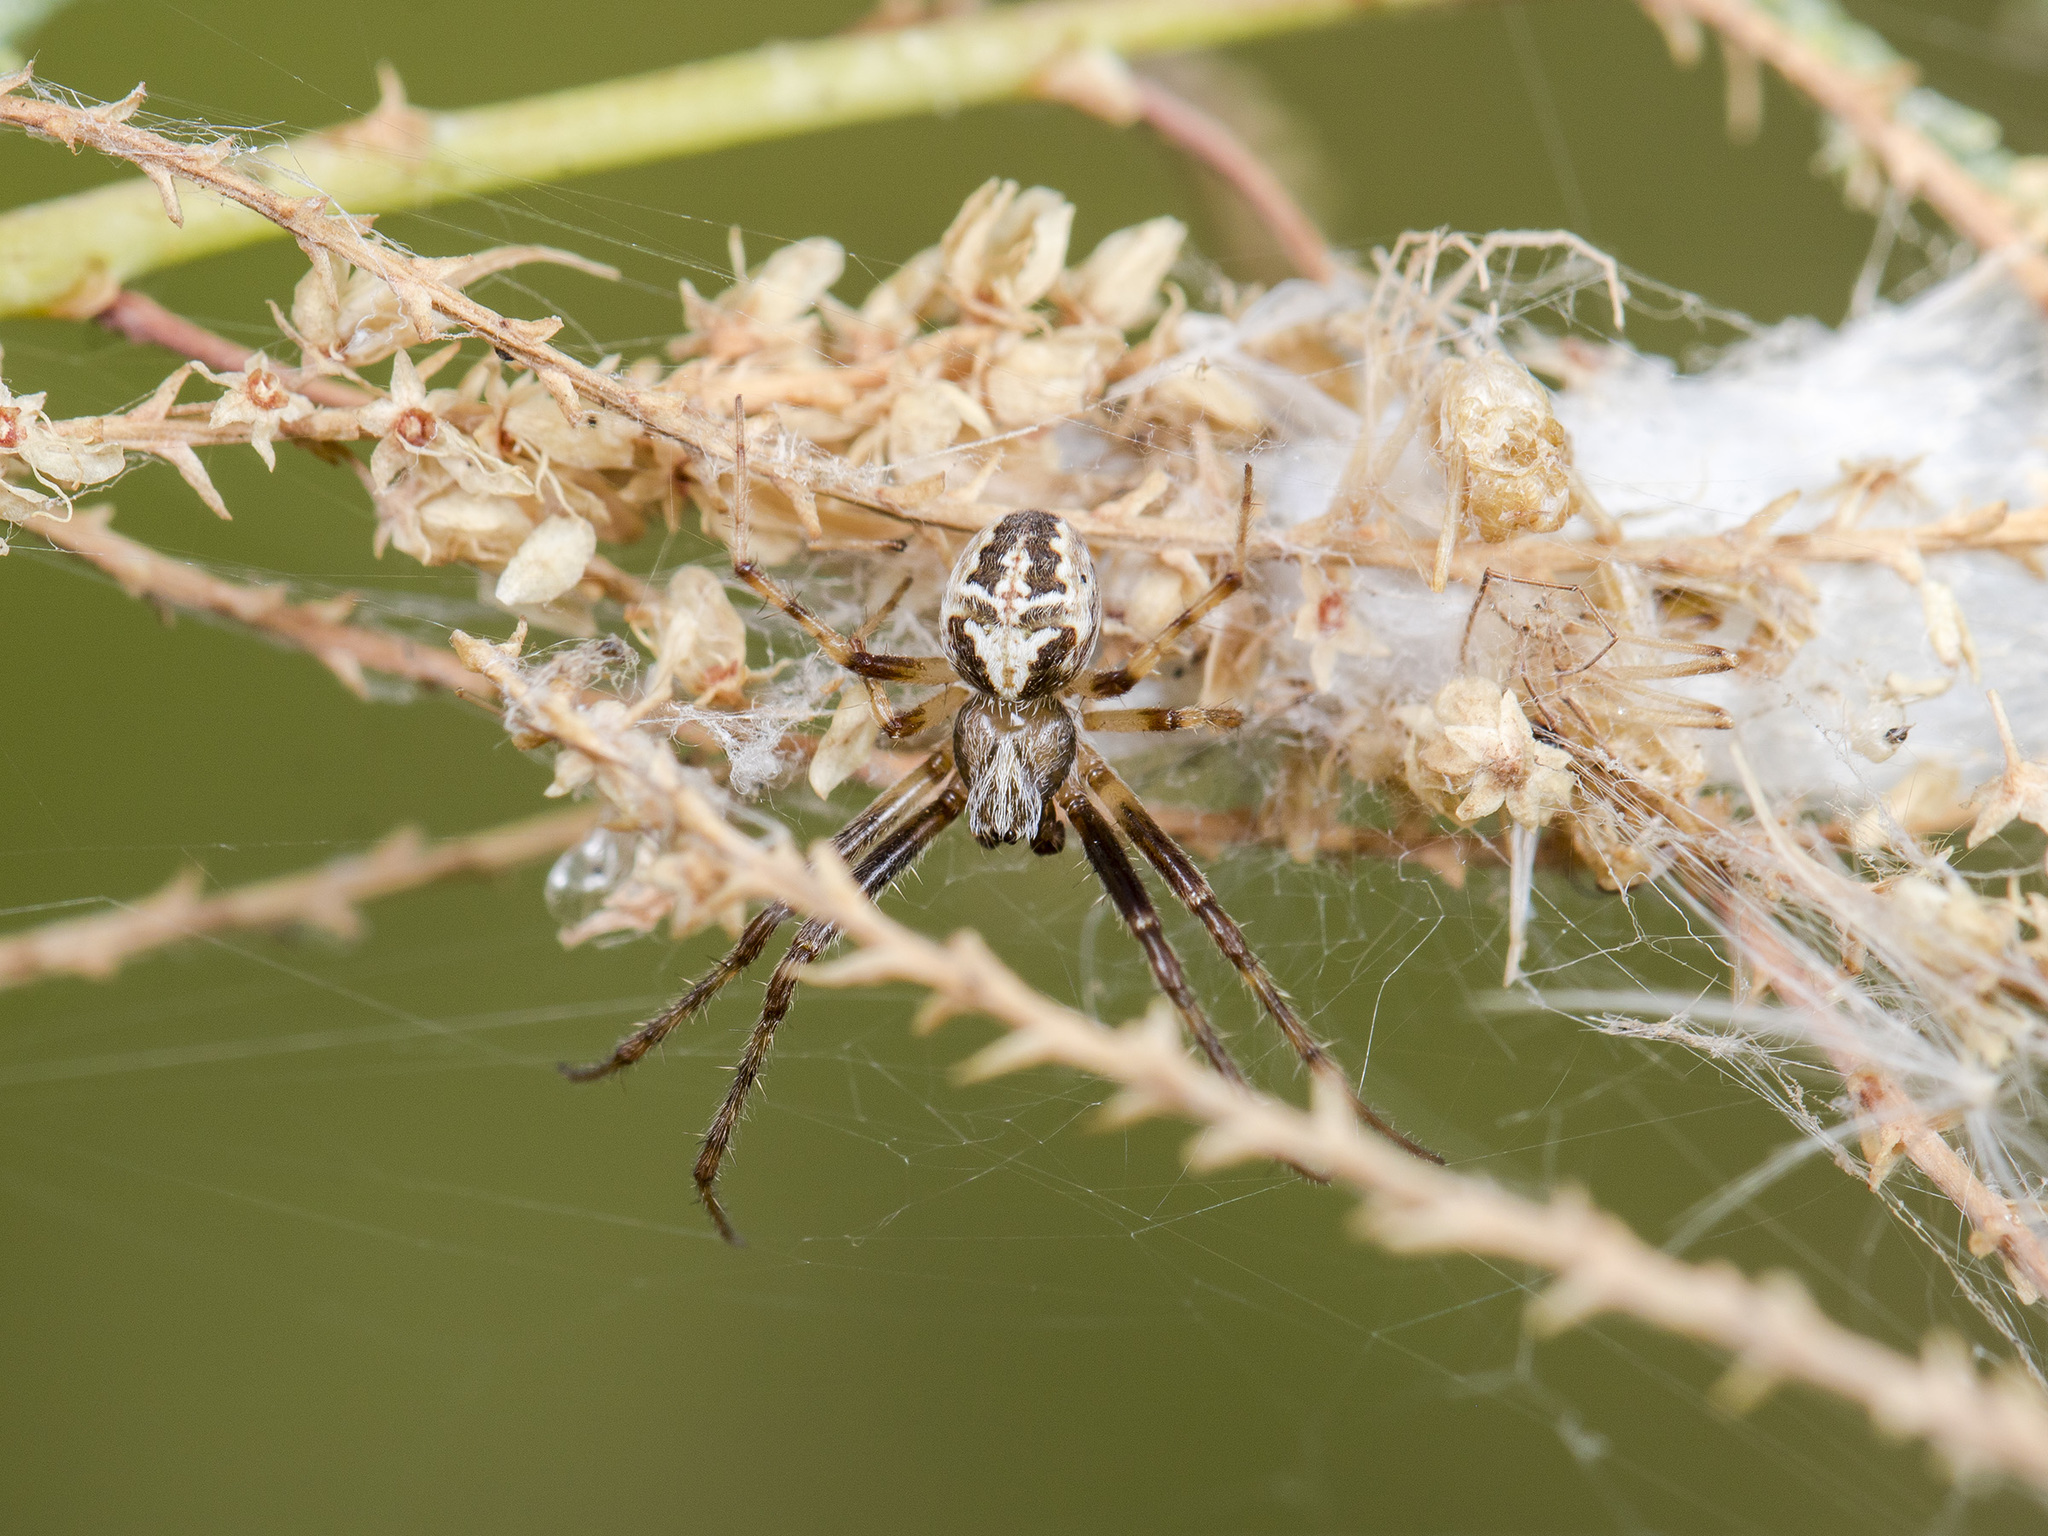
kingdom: Animalia
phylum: Arthropoda
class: Arachnida
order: Araneae
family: Araneidae
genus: Araneus
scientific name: Araneus pallasi
